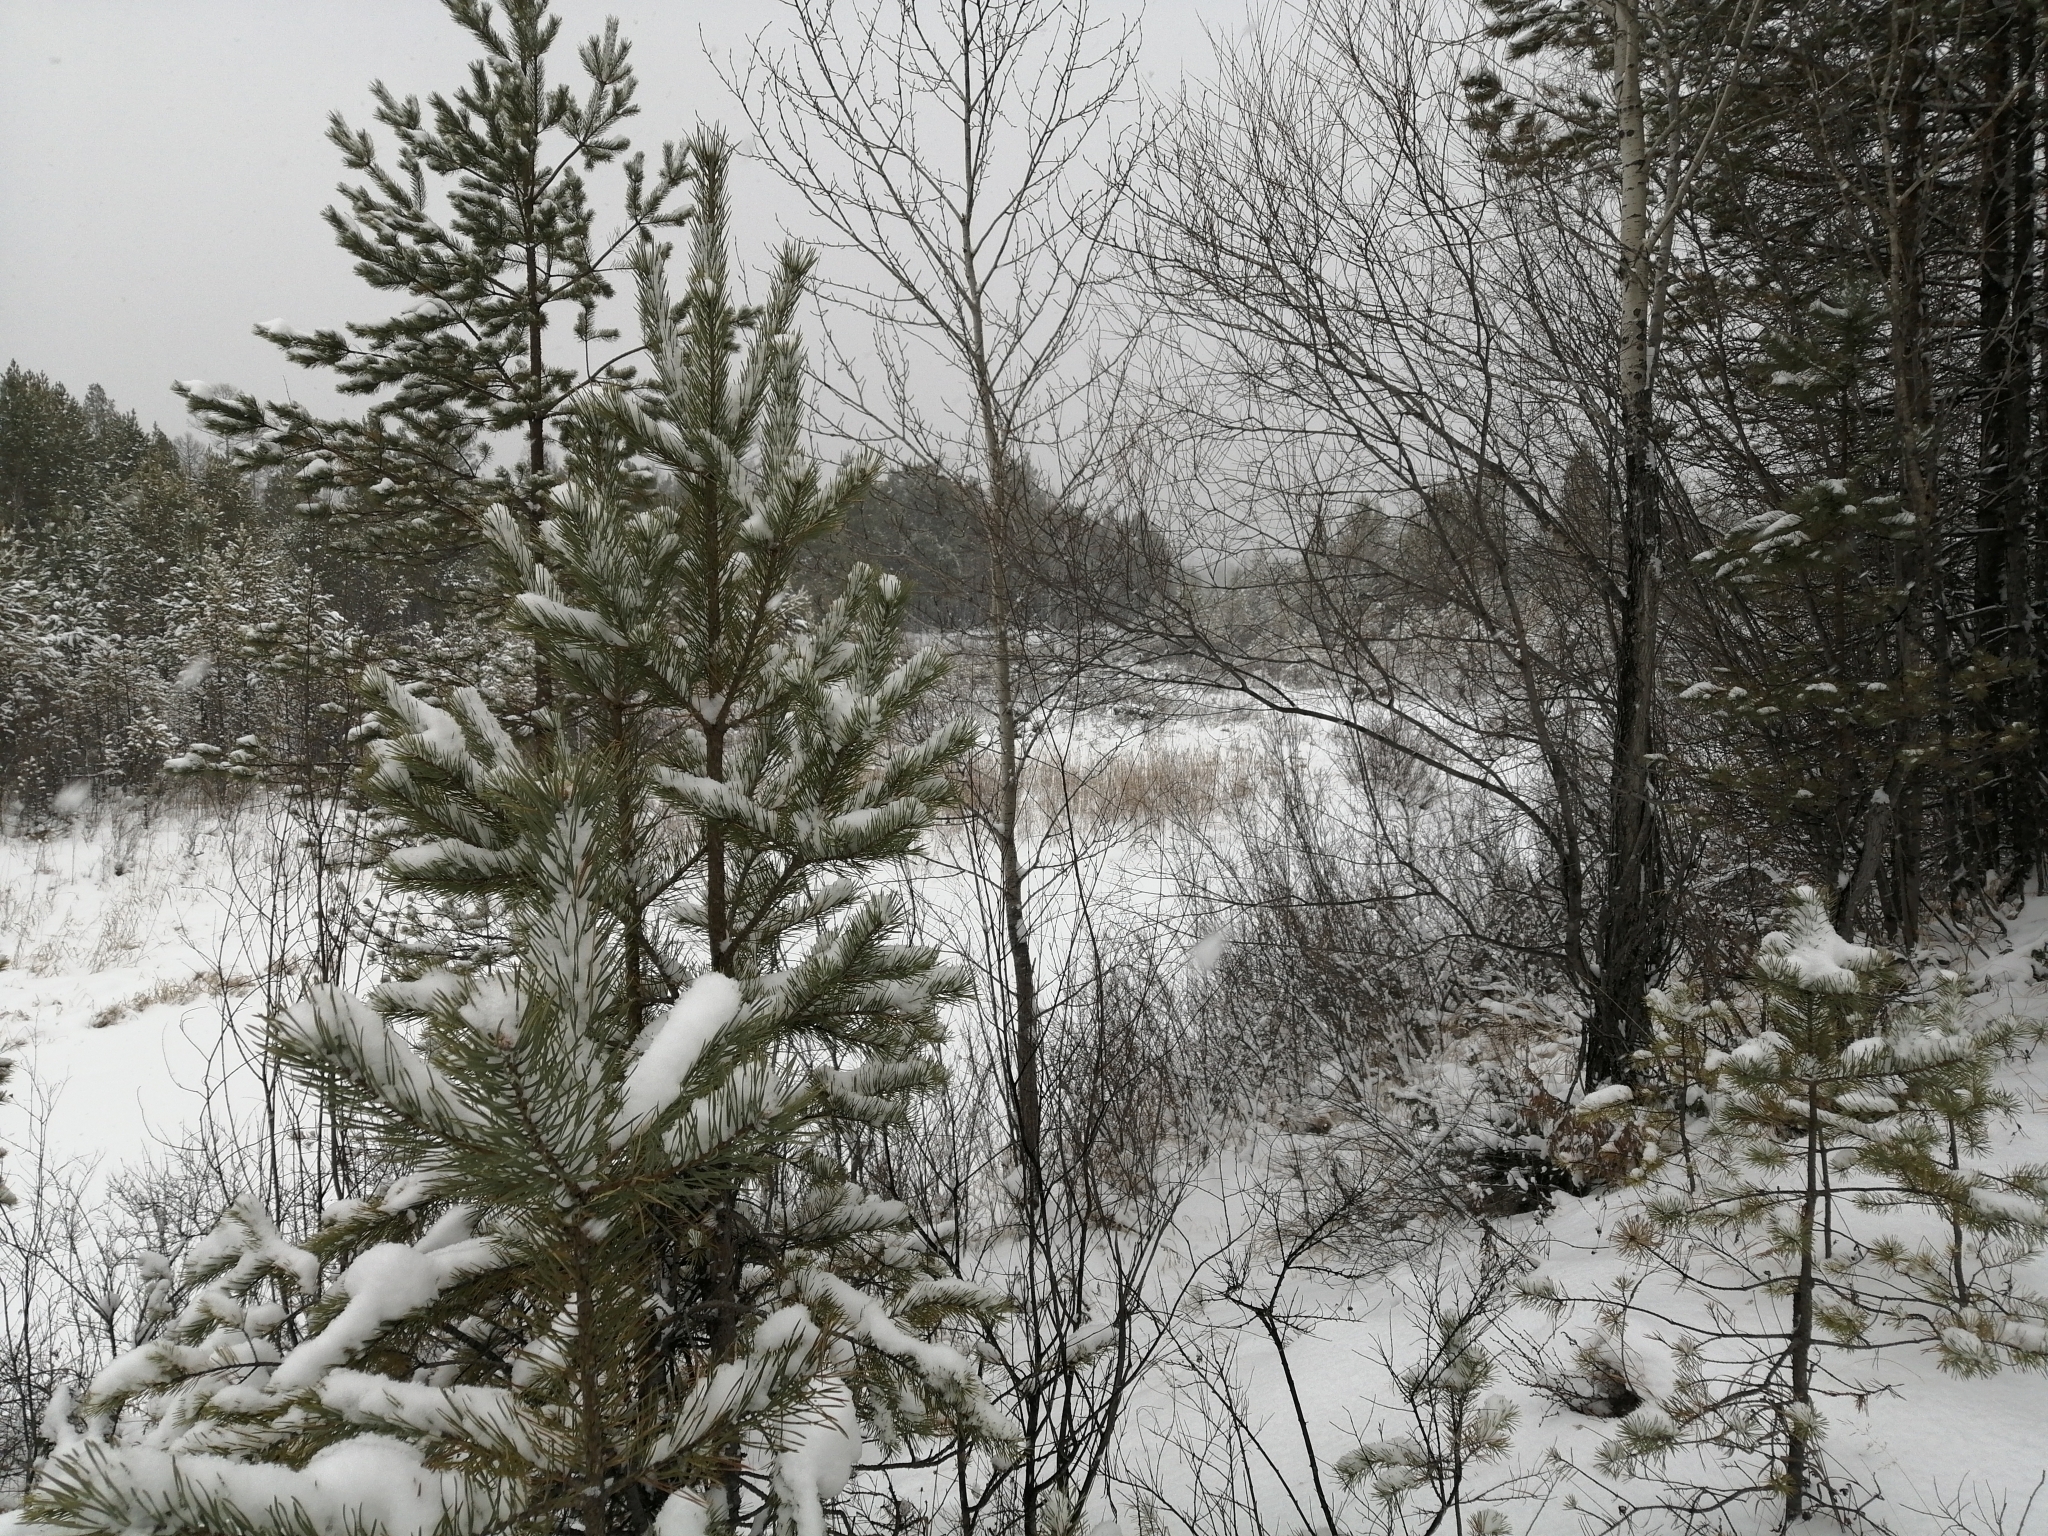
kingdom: Plantae
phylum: Tracheophyta
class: Pinopsida
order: Pinales
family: Pinaceae
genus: Pinus
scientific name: Pinus sylvestris
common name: Scots pine
